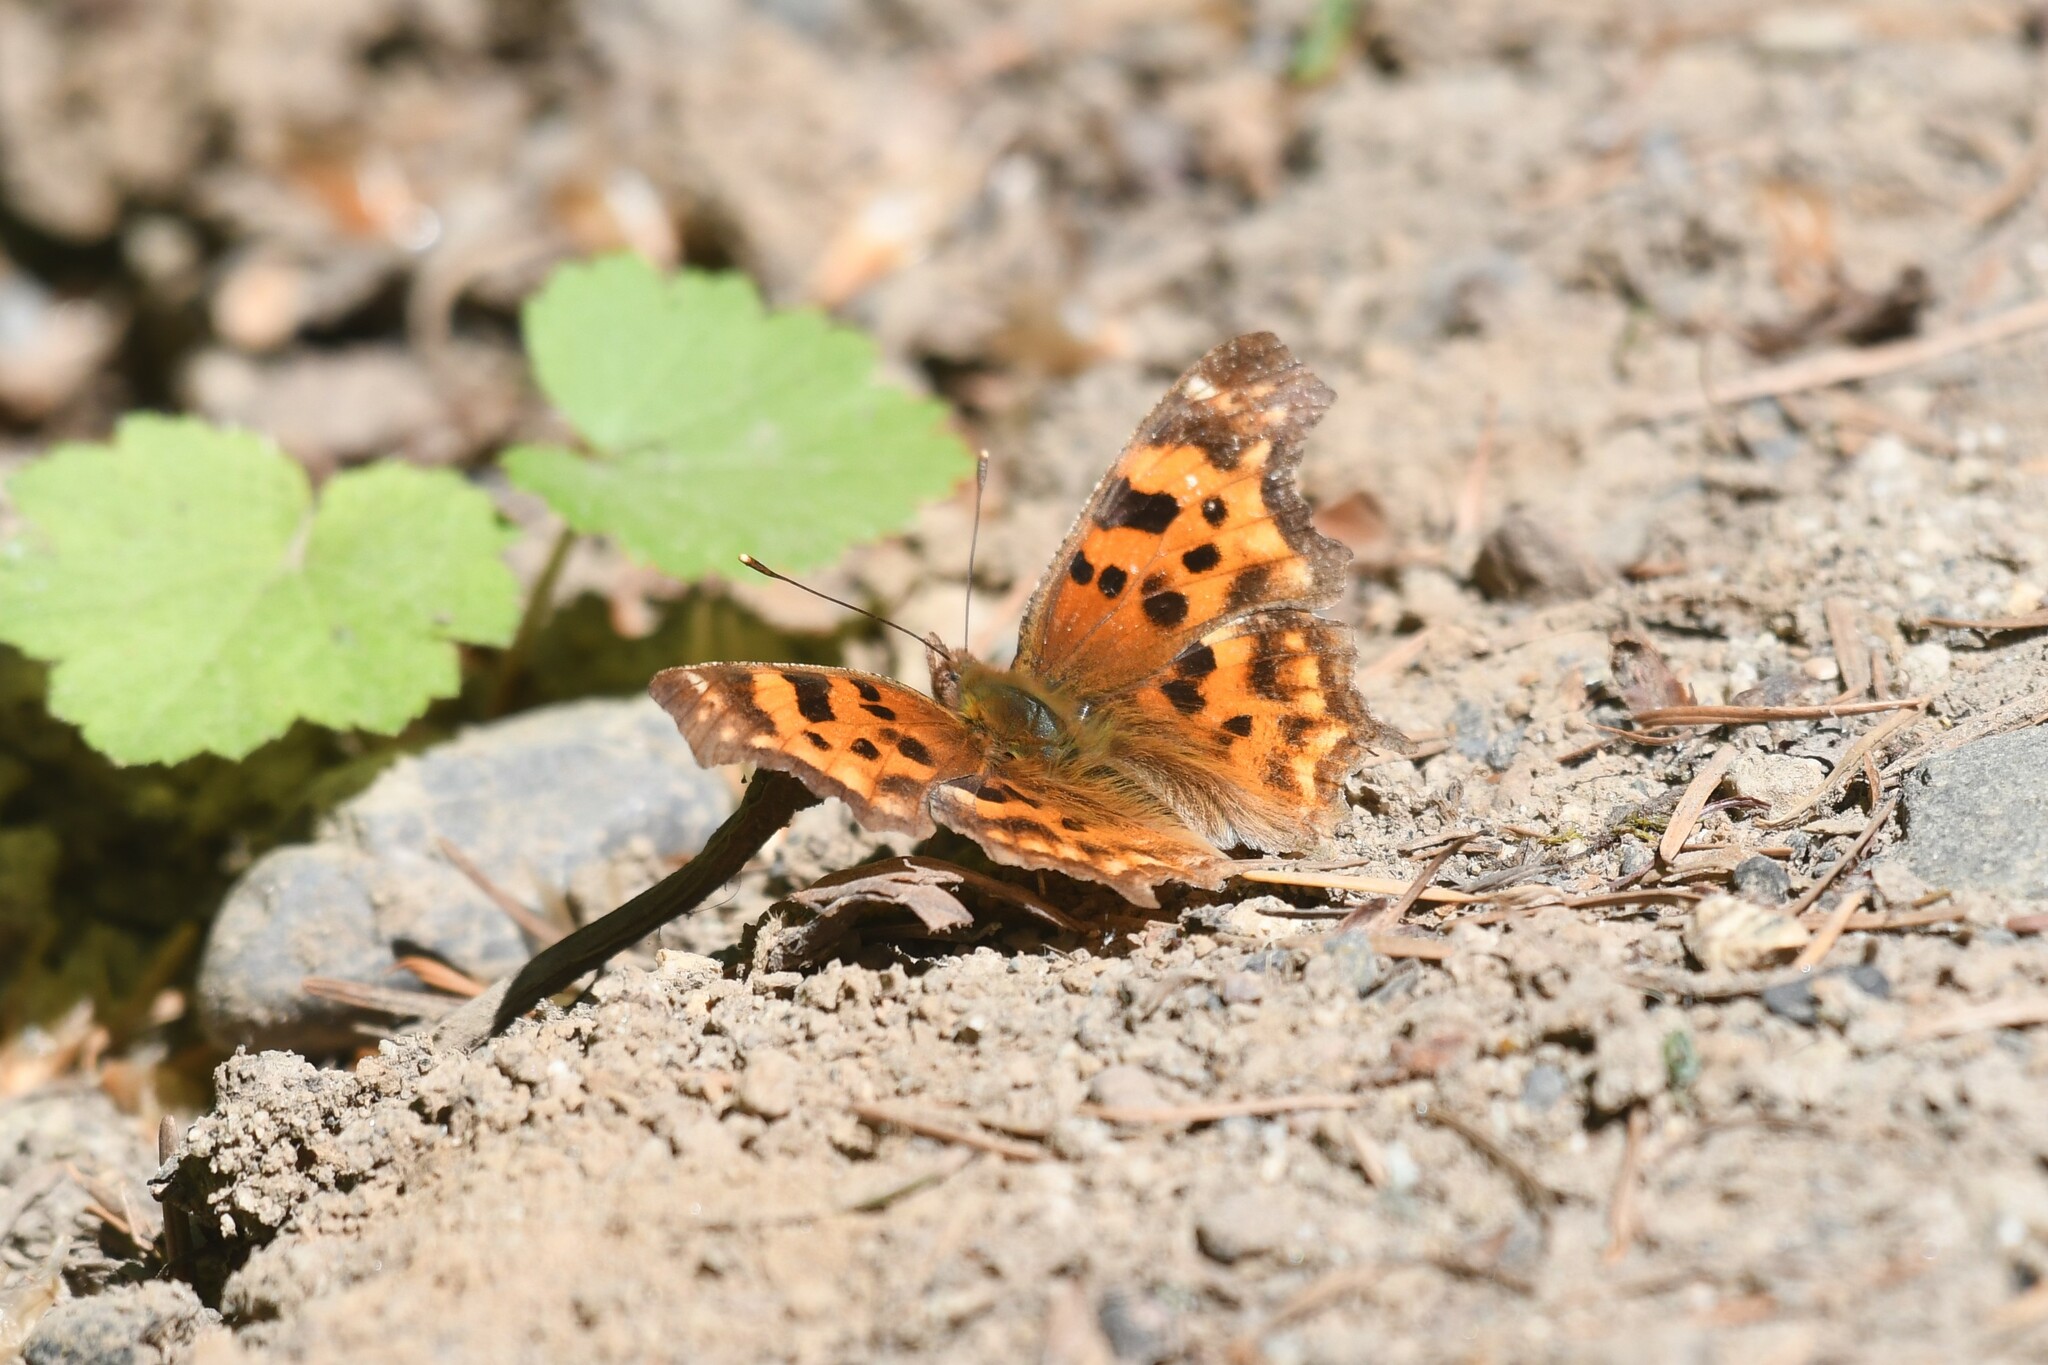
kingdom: Animalia
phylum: Arthropoda
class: Insecta
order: Lepidoptera
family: Nymphalidae
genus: Polygonia
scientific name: Polygonia satyrus
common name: Satyr angle wing
